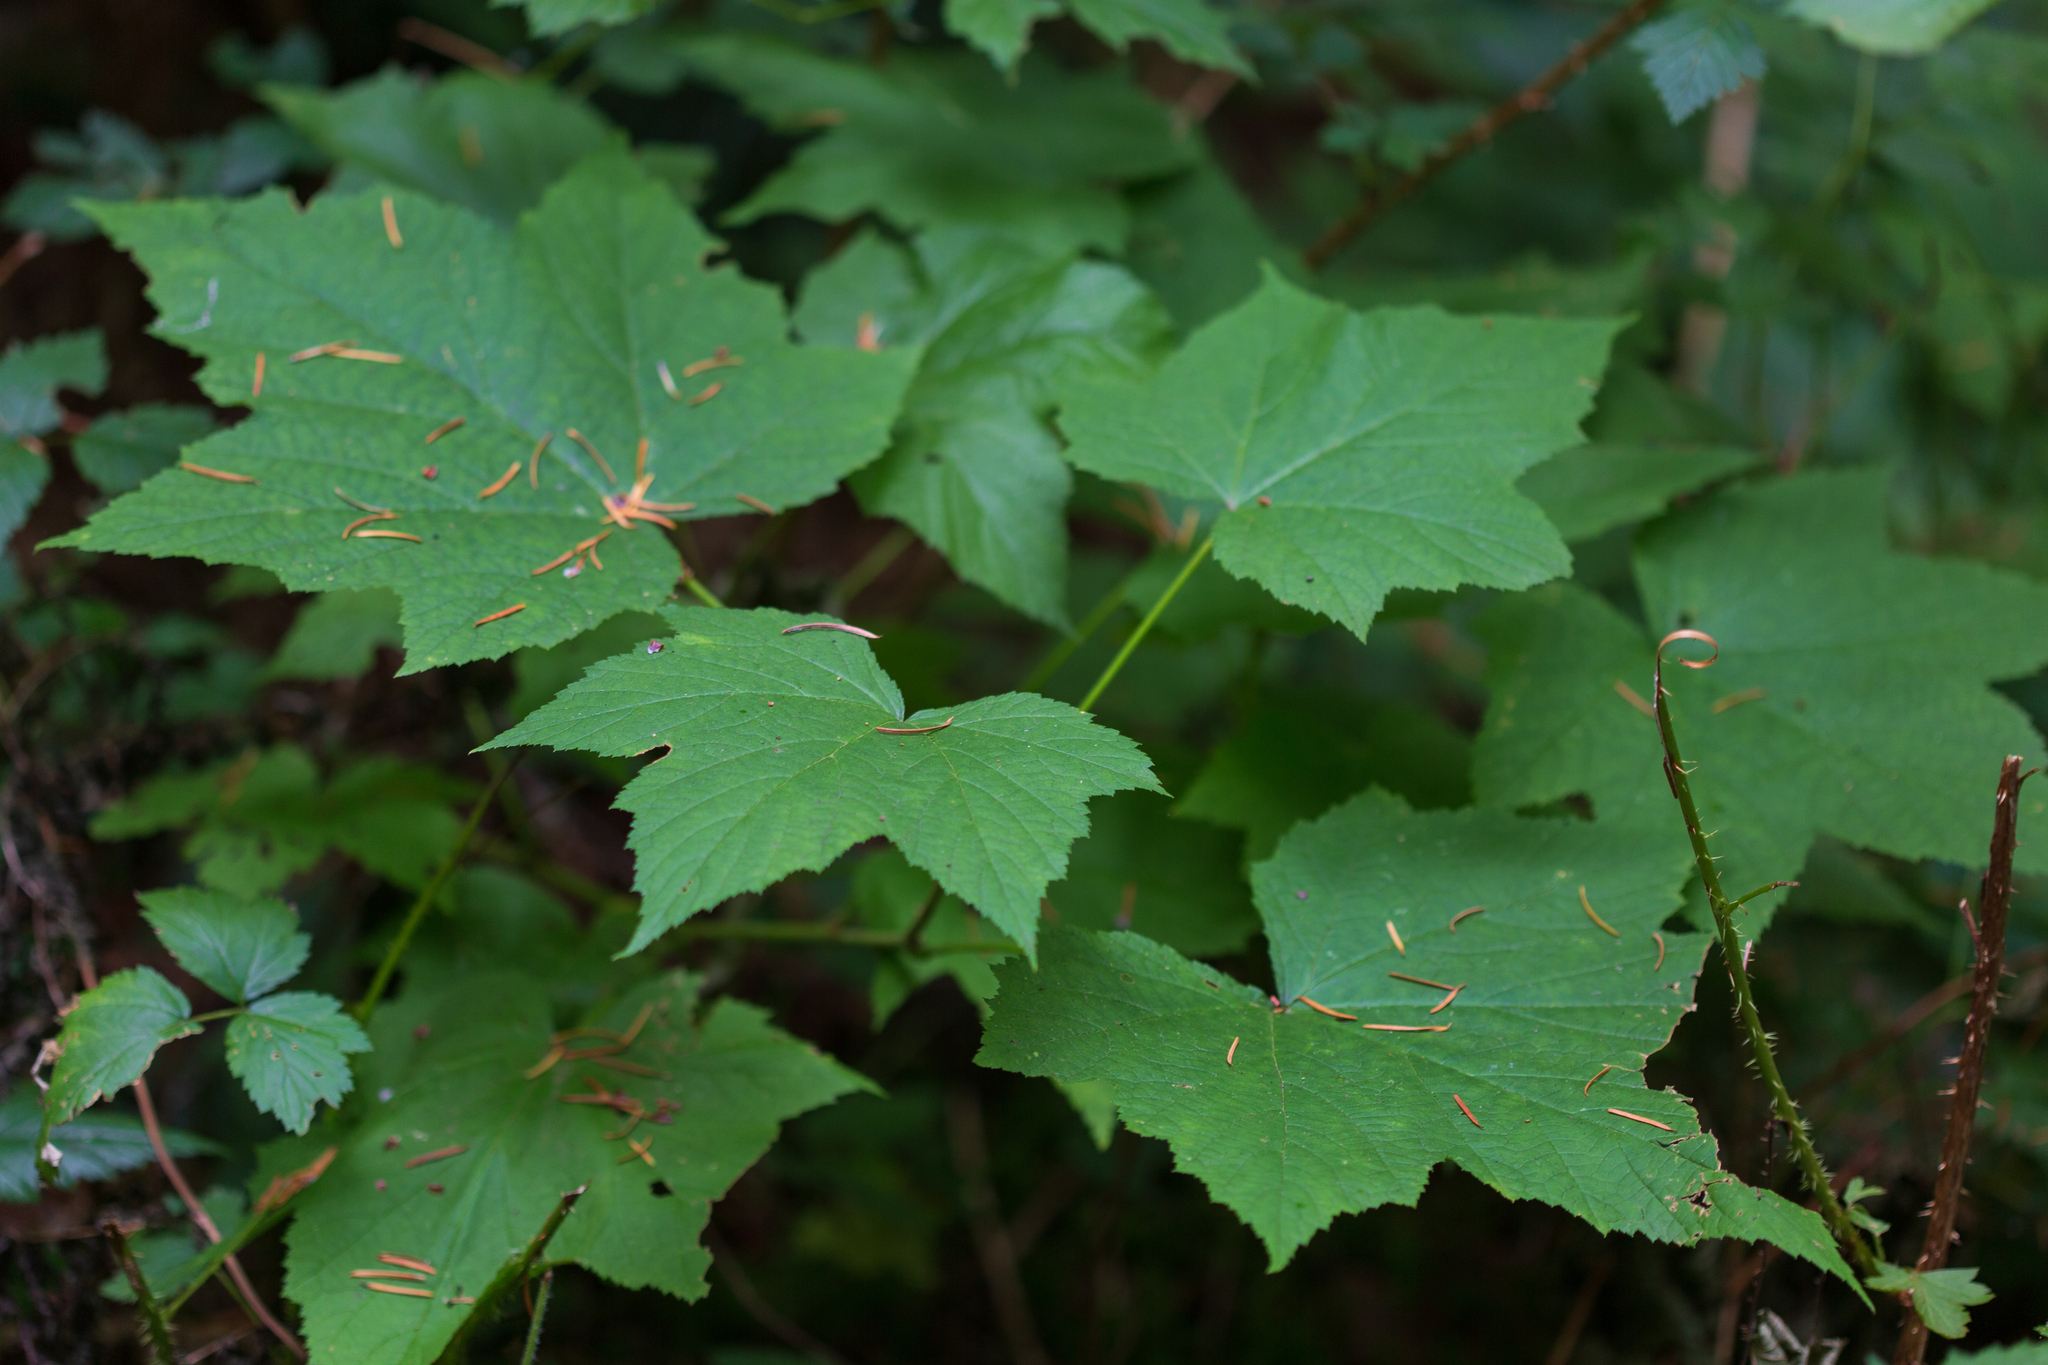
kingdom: Plantae
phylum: Tracheophyta
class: Magnoliopsida
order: Rosales
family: Rosaceae
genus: Rubus
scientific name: Rubus parviflorus
